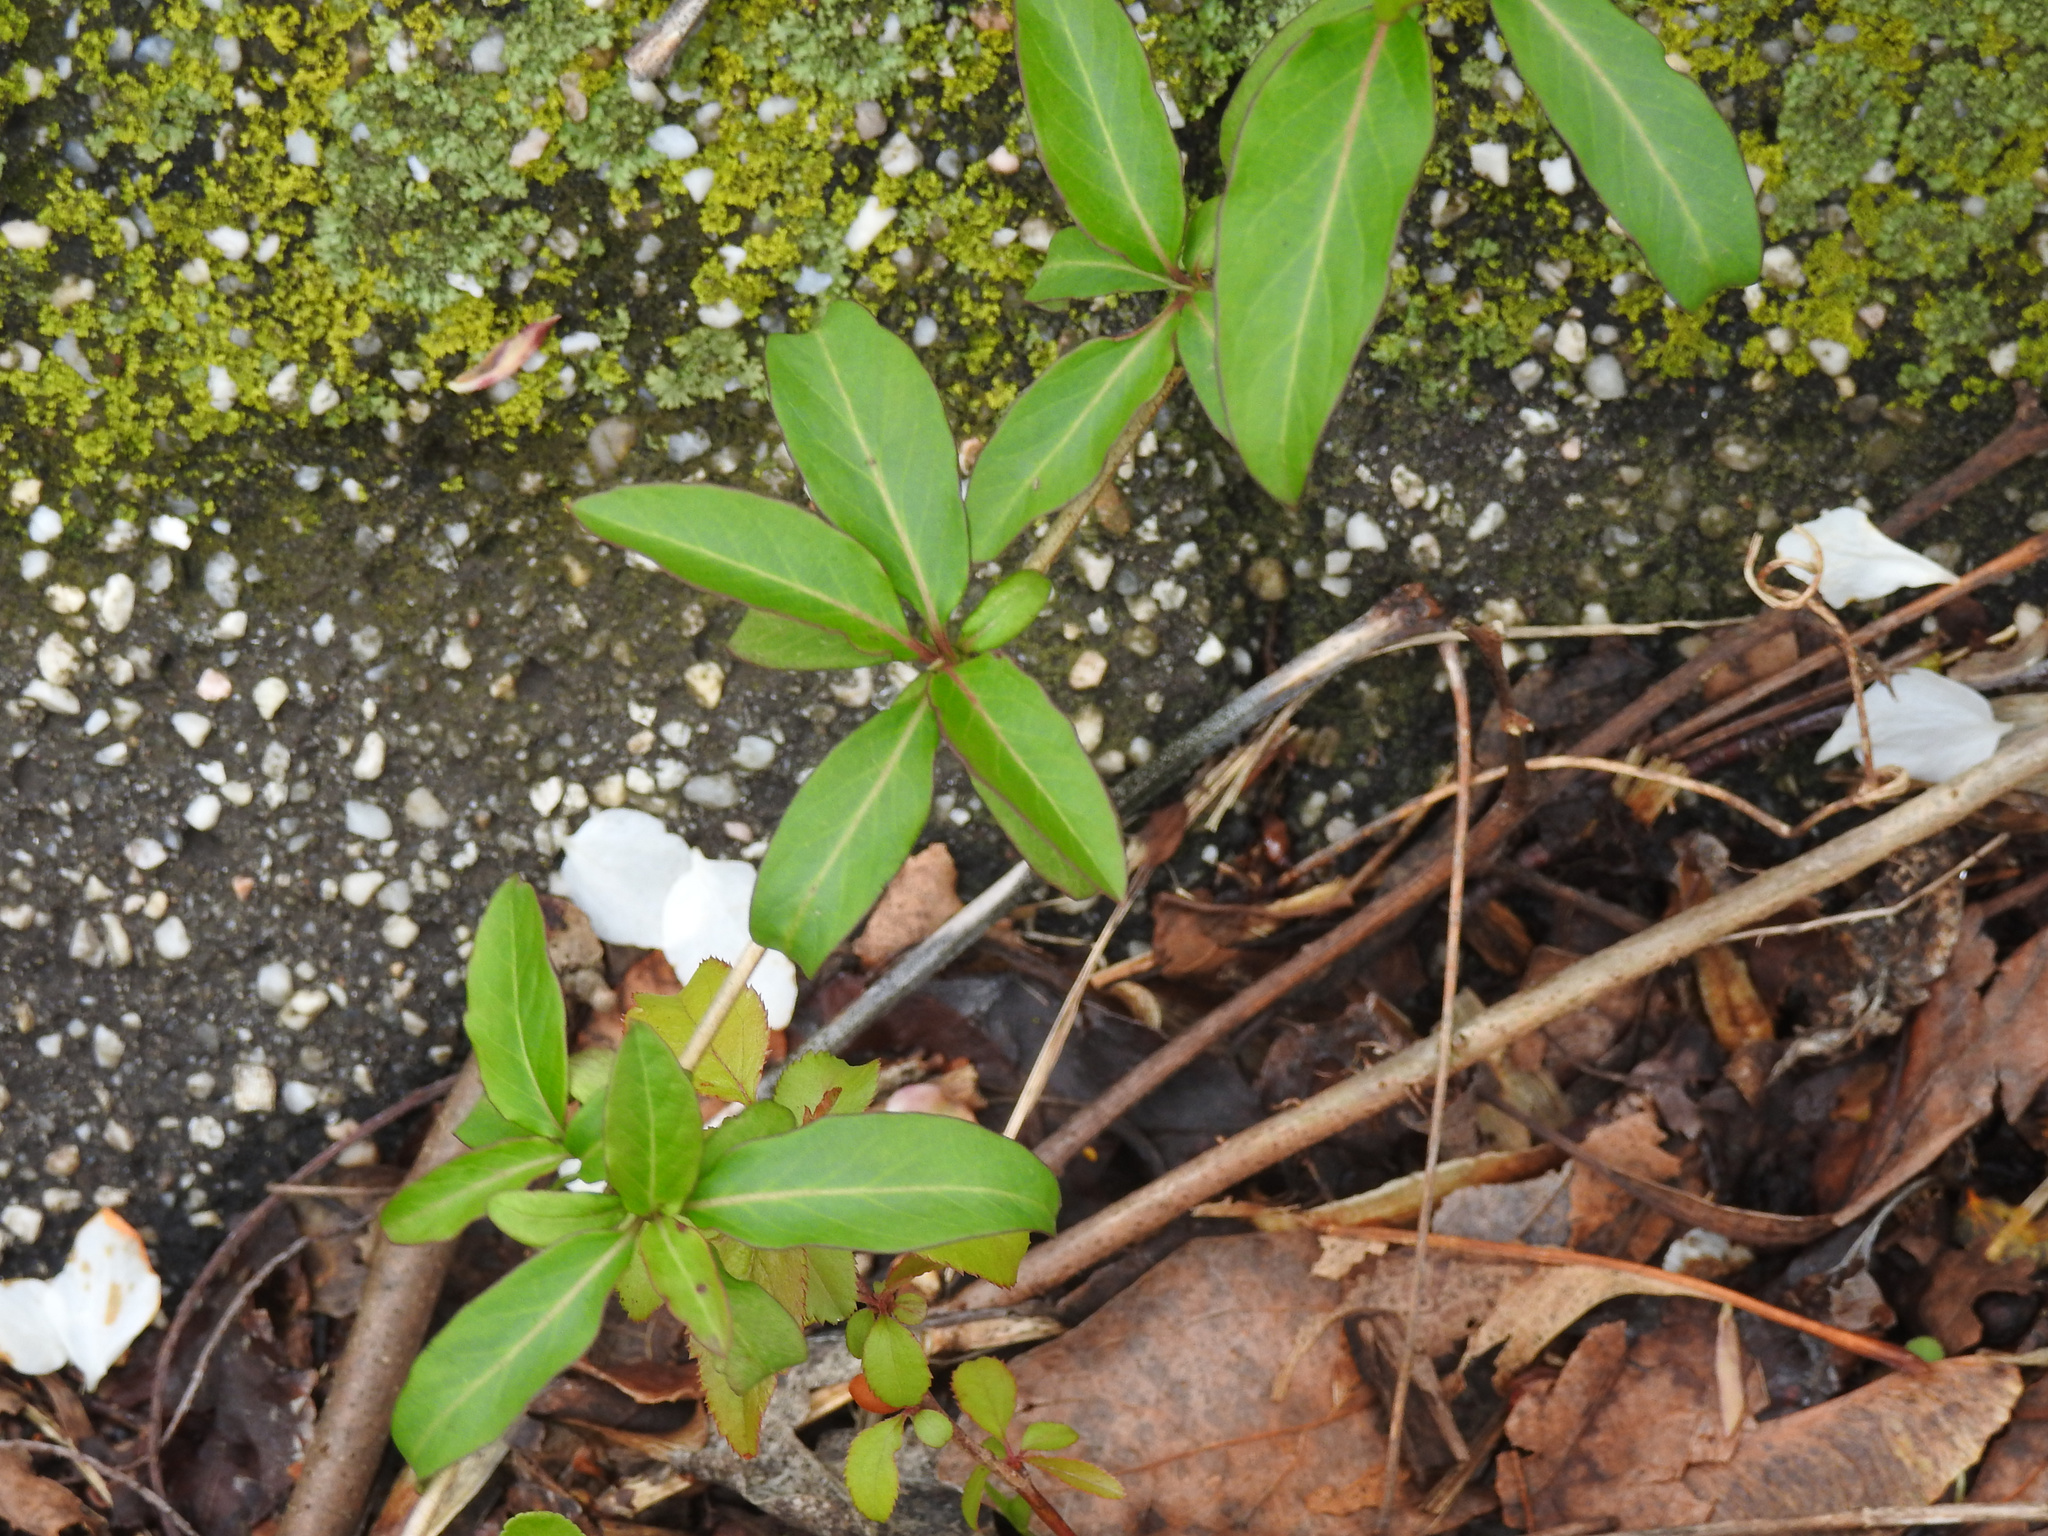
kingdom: Plantae
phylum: Tracheophyta
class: Magnoliopsida
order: Dipsacales
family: Caprifoliaceae
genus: Lonicera
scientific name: Lonicera japonica
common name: Japanese honeysuckle
